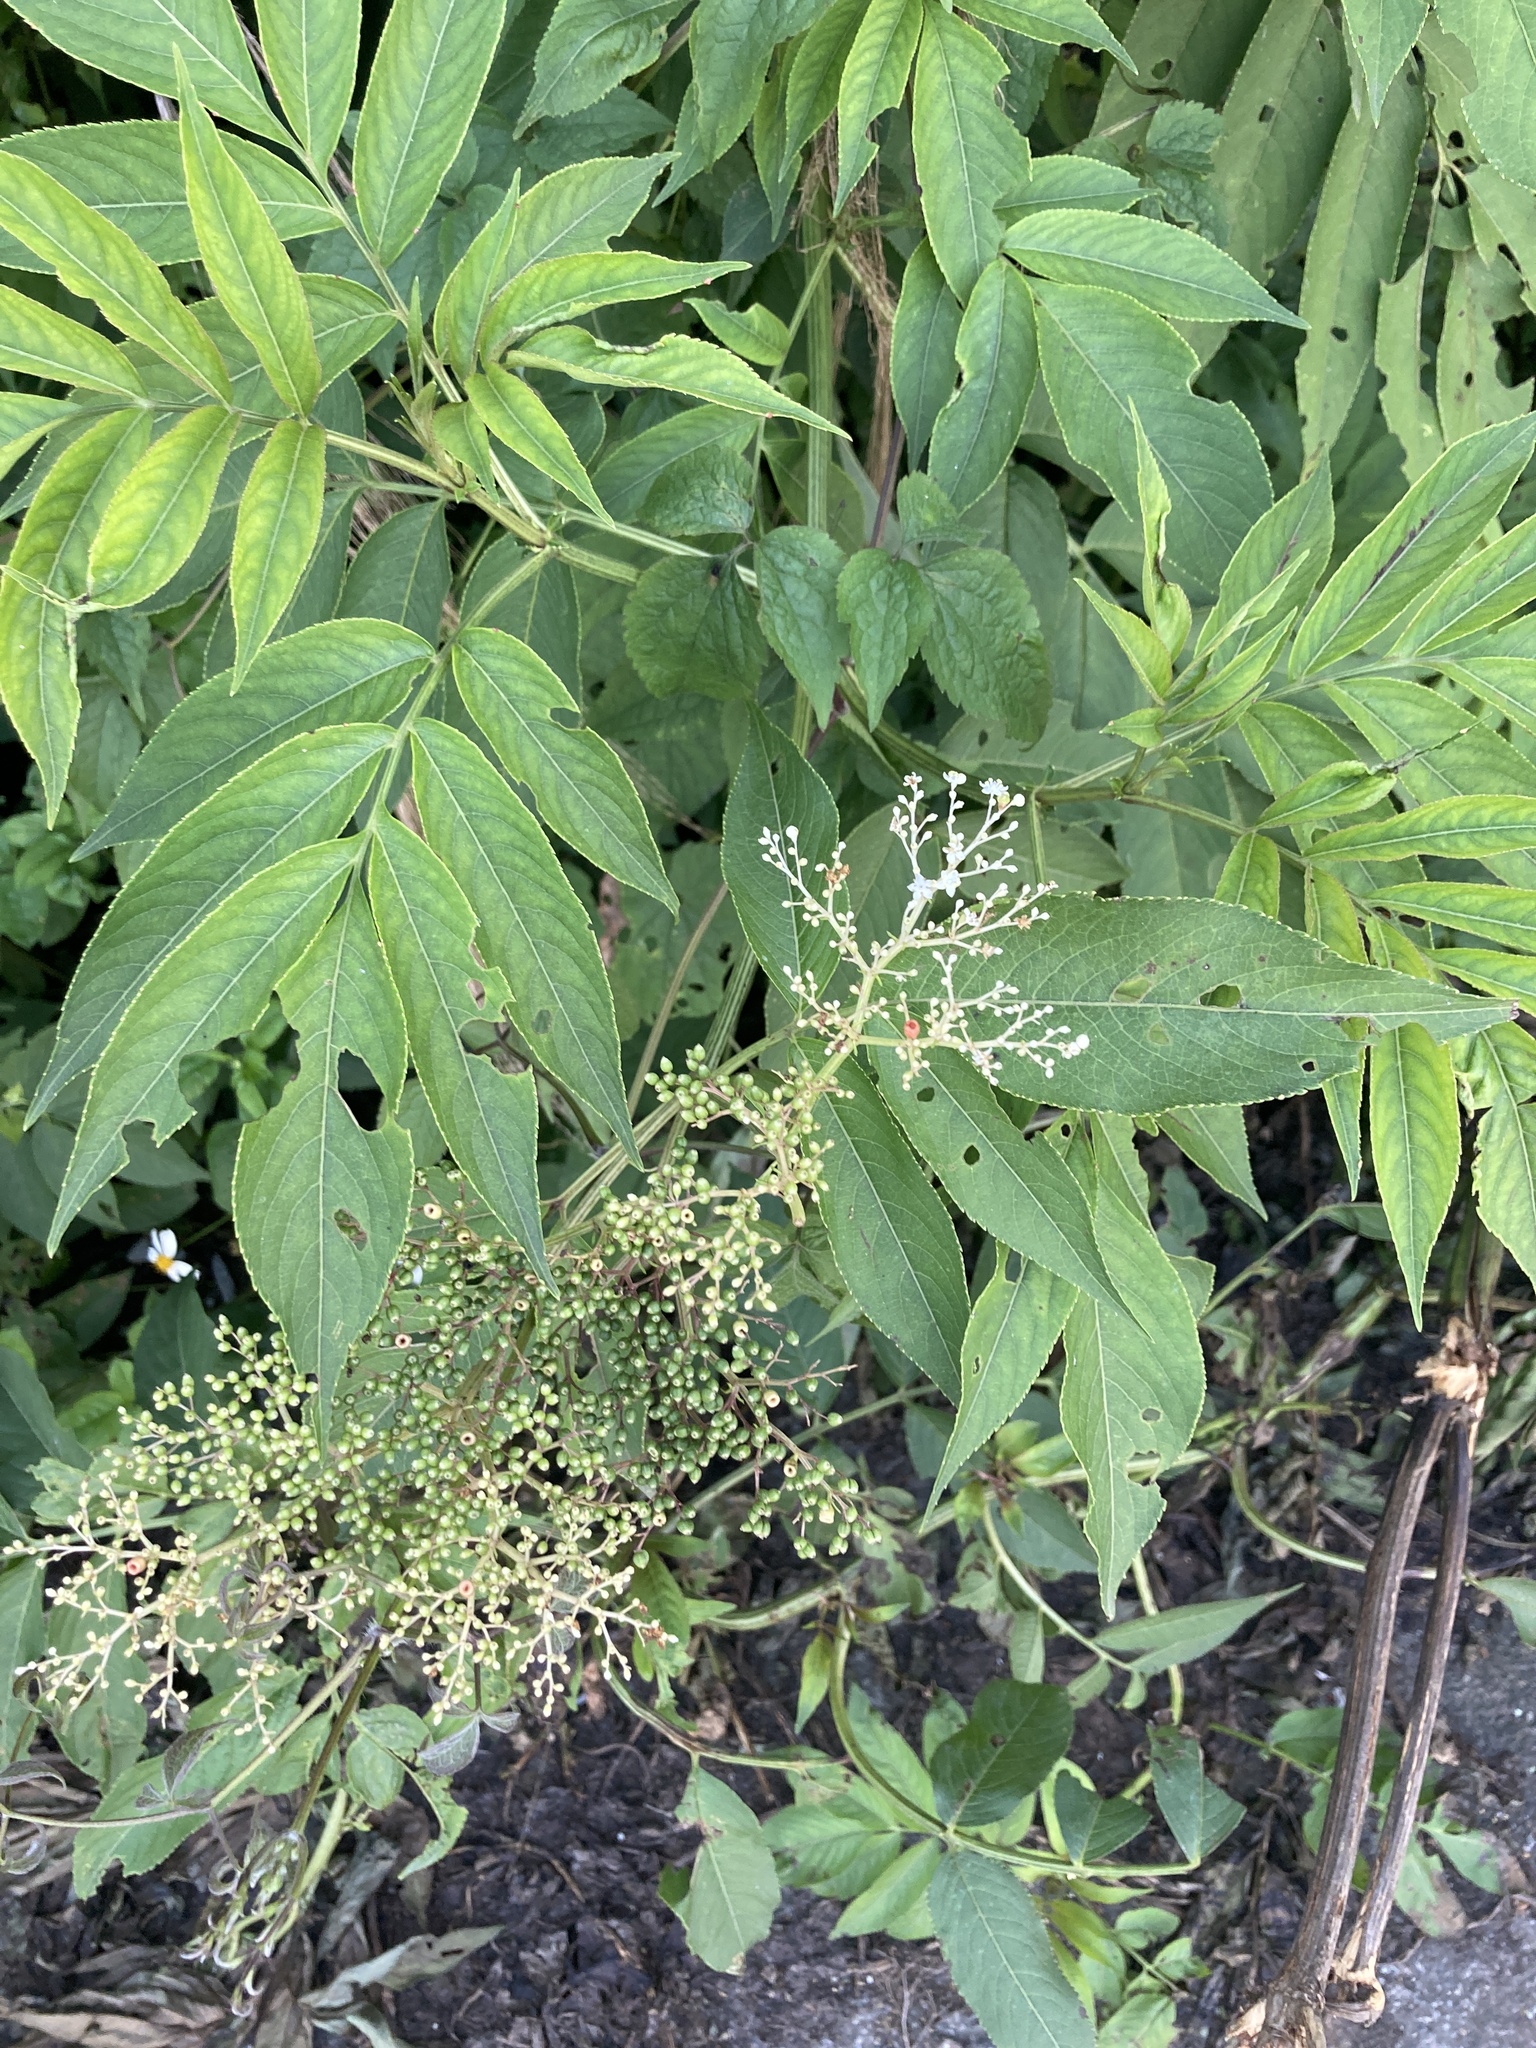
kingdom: Plantae
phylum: Tracheophyta
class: Magnoliopsida
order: Dipsacales
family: Viburnaceae
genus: Sambucus
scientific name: Sambucus javanica
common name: Chinese elder
